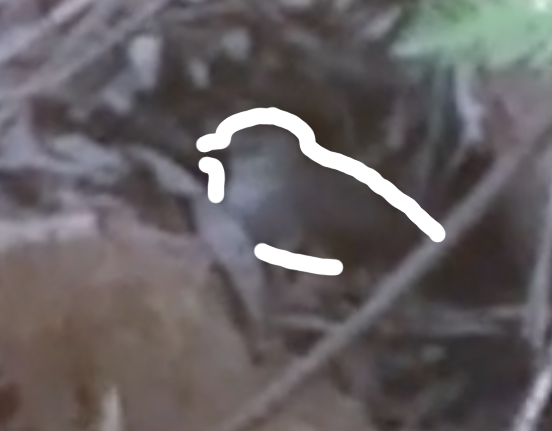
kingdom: Animalia
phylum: Chordata
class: Aves
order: Passeriformes
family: Mimidae
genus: Dumetella
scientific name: Dumetella carolinensis
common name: Gray catbird
